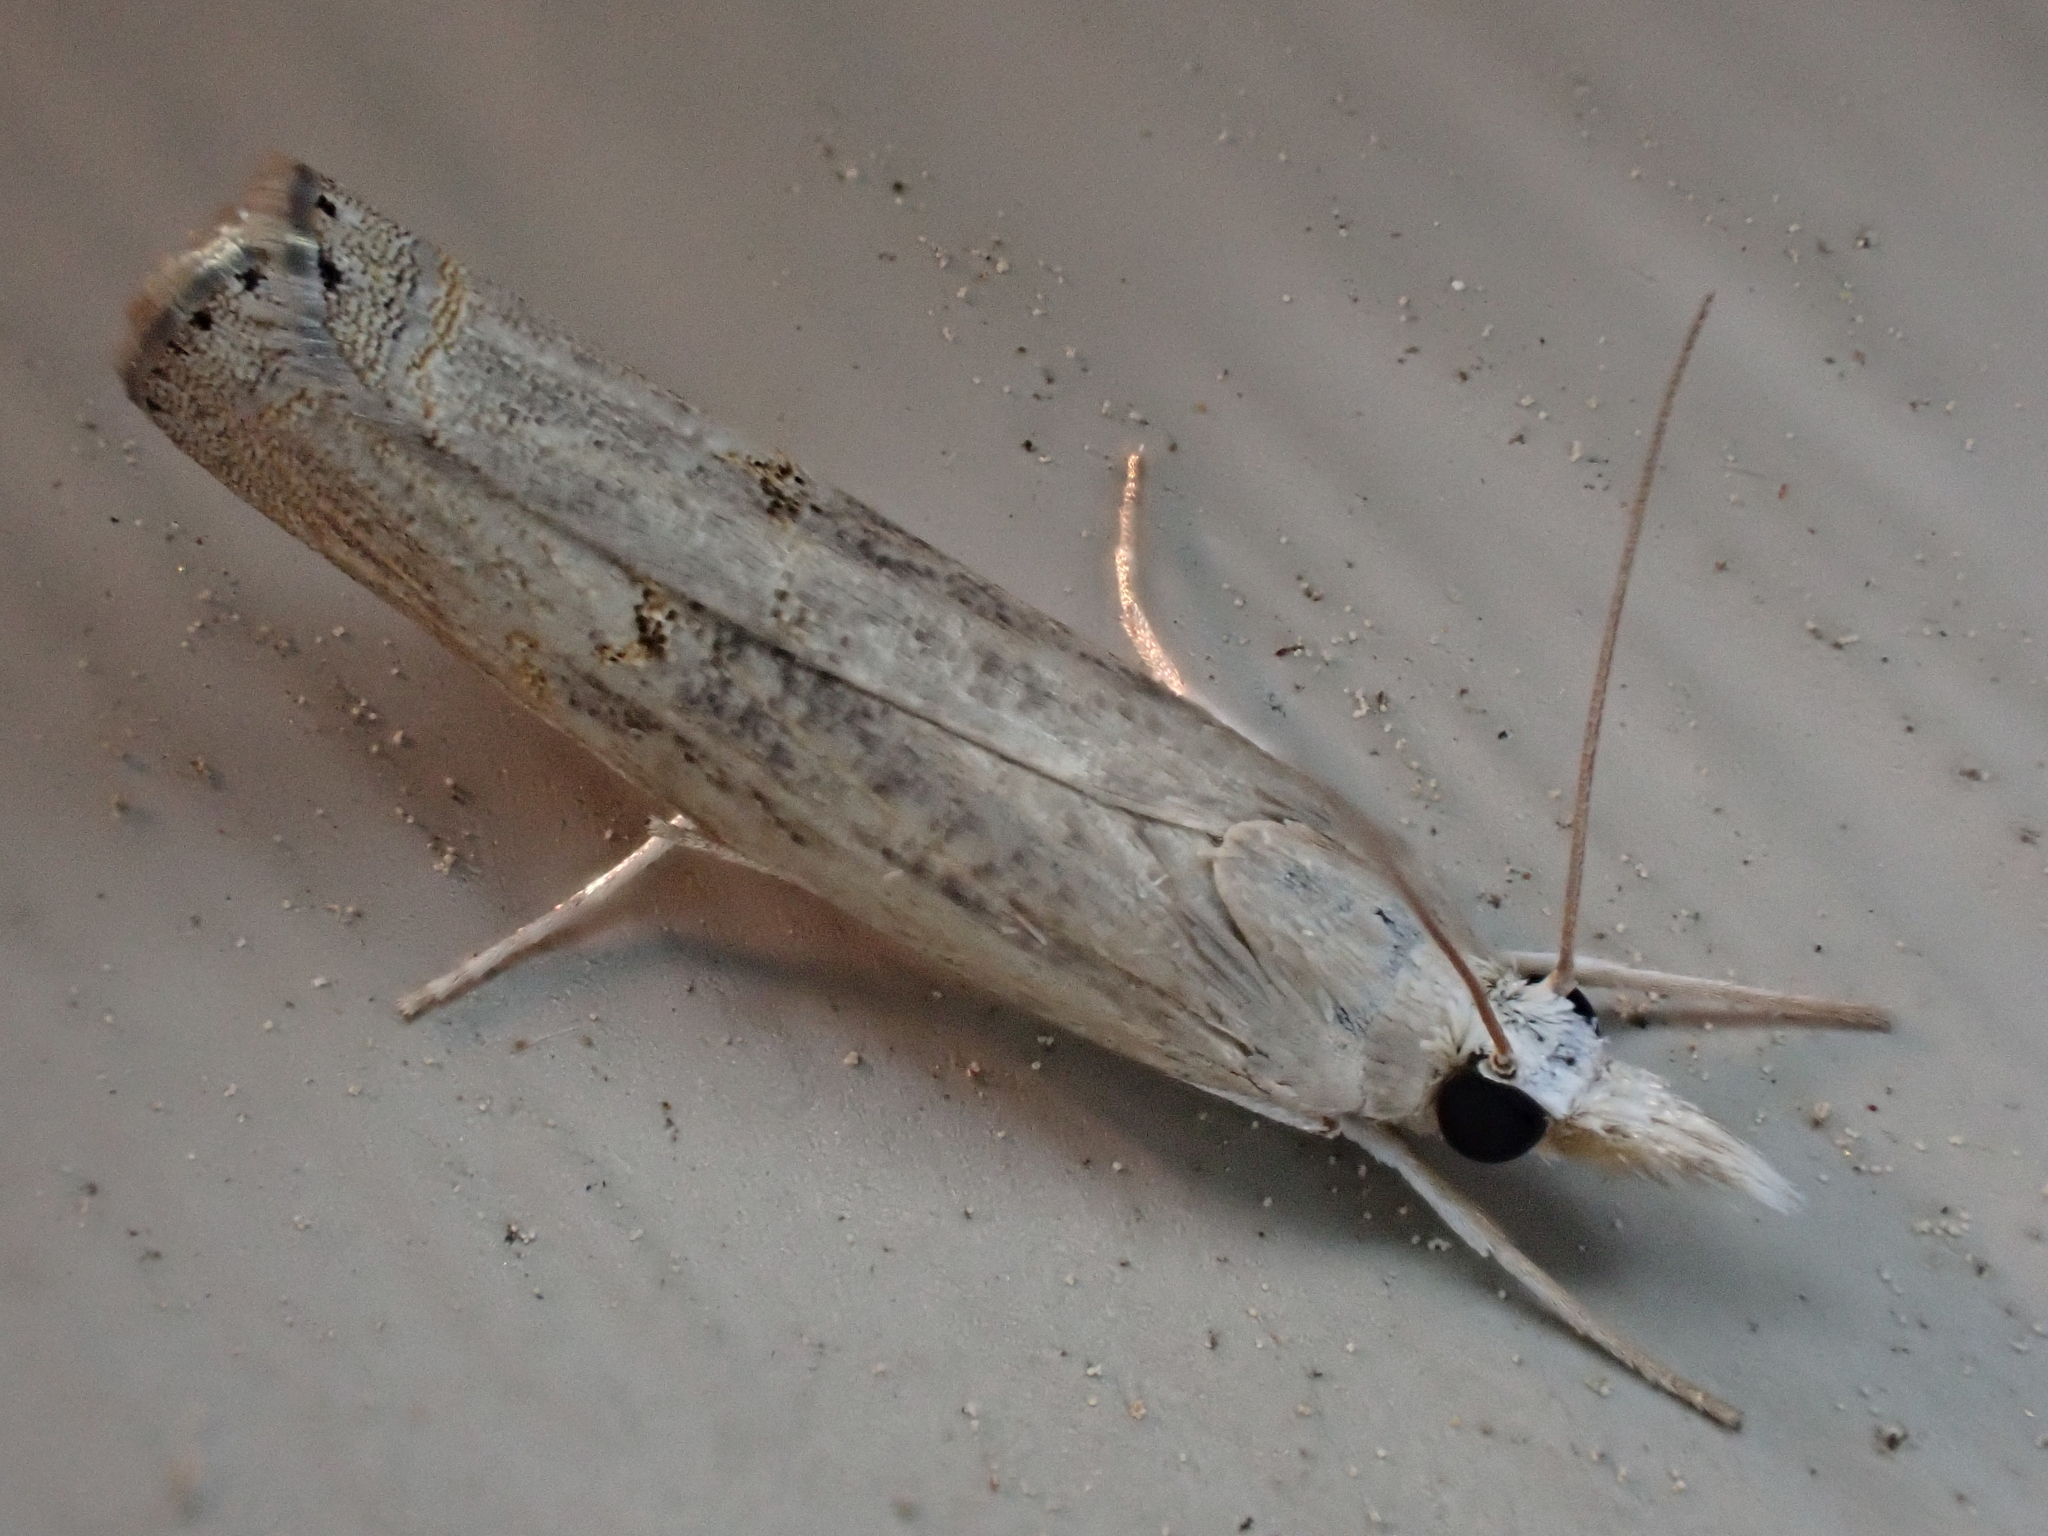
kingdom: Animalia
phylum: Arthropoda
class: Insecta
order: Lepidoptera
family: Crambidae
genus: Parapediasia
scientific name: Parapediasia teterellus
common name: Bluegrass webworm moth
